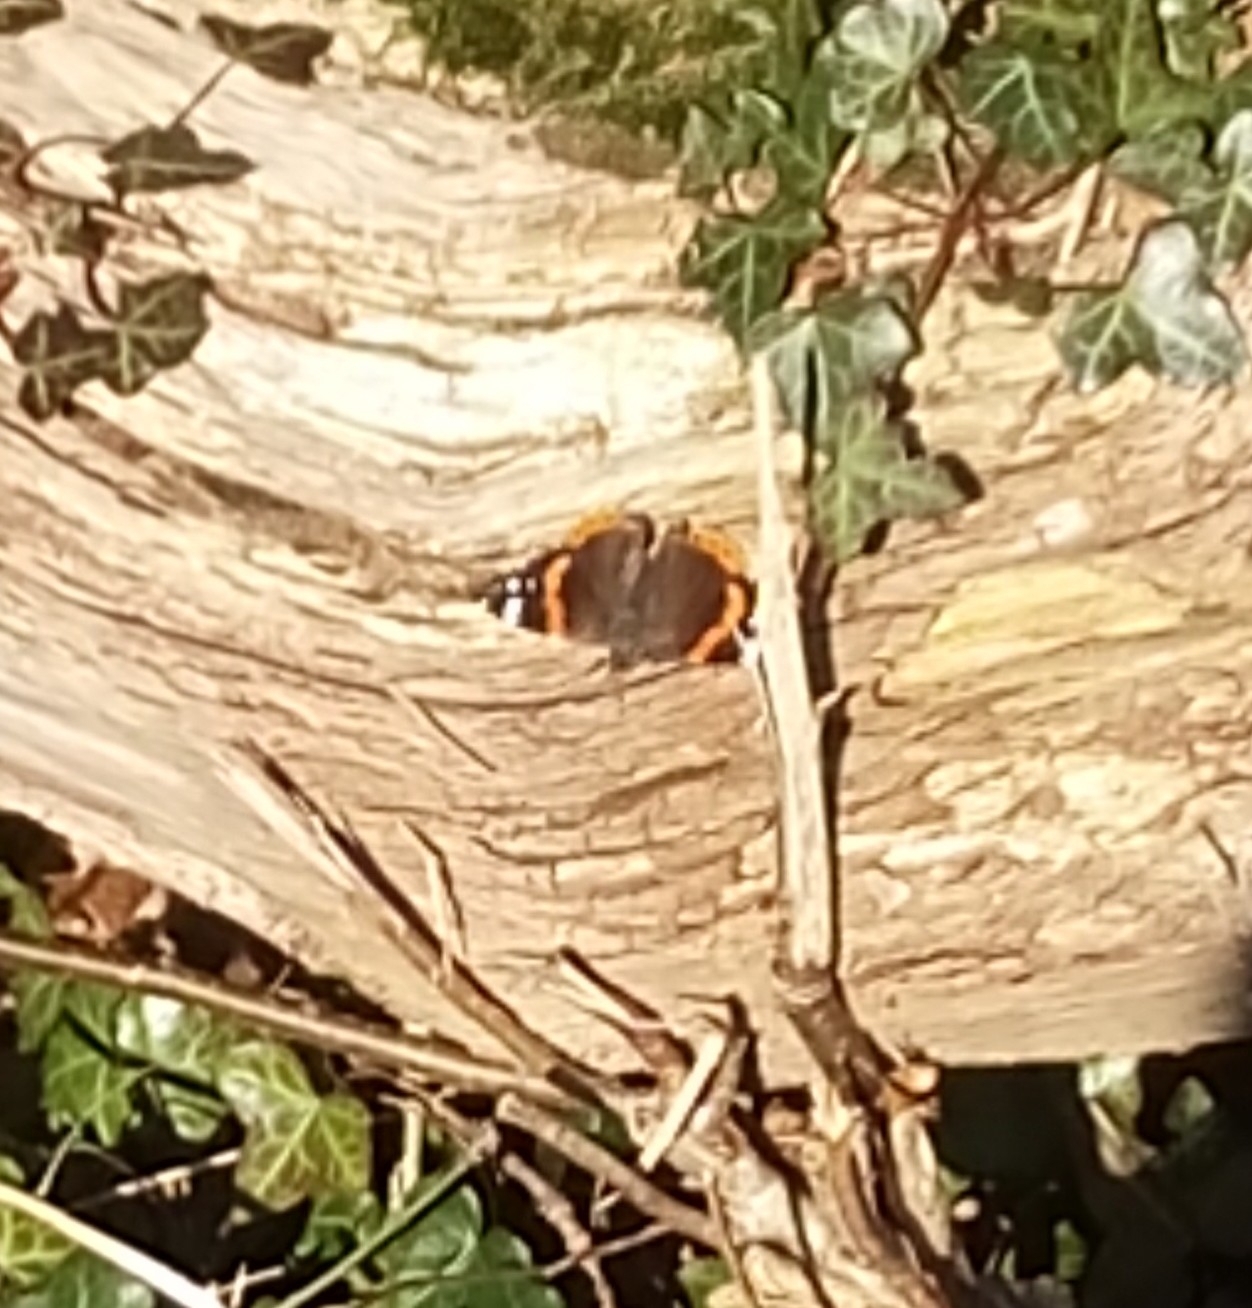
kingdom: Animalia
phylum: Arthropoda
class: Insecta
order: Lepidoptera
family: Nymphalidae
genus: Vanessa
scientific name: Vanessa atalanta
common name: Red admiral
